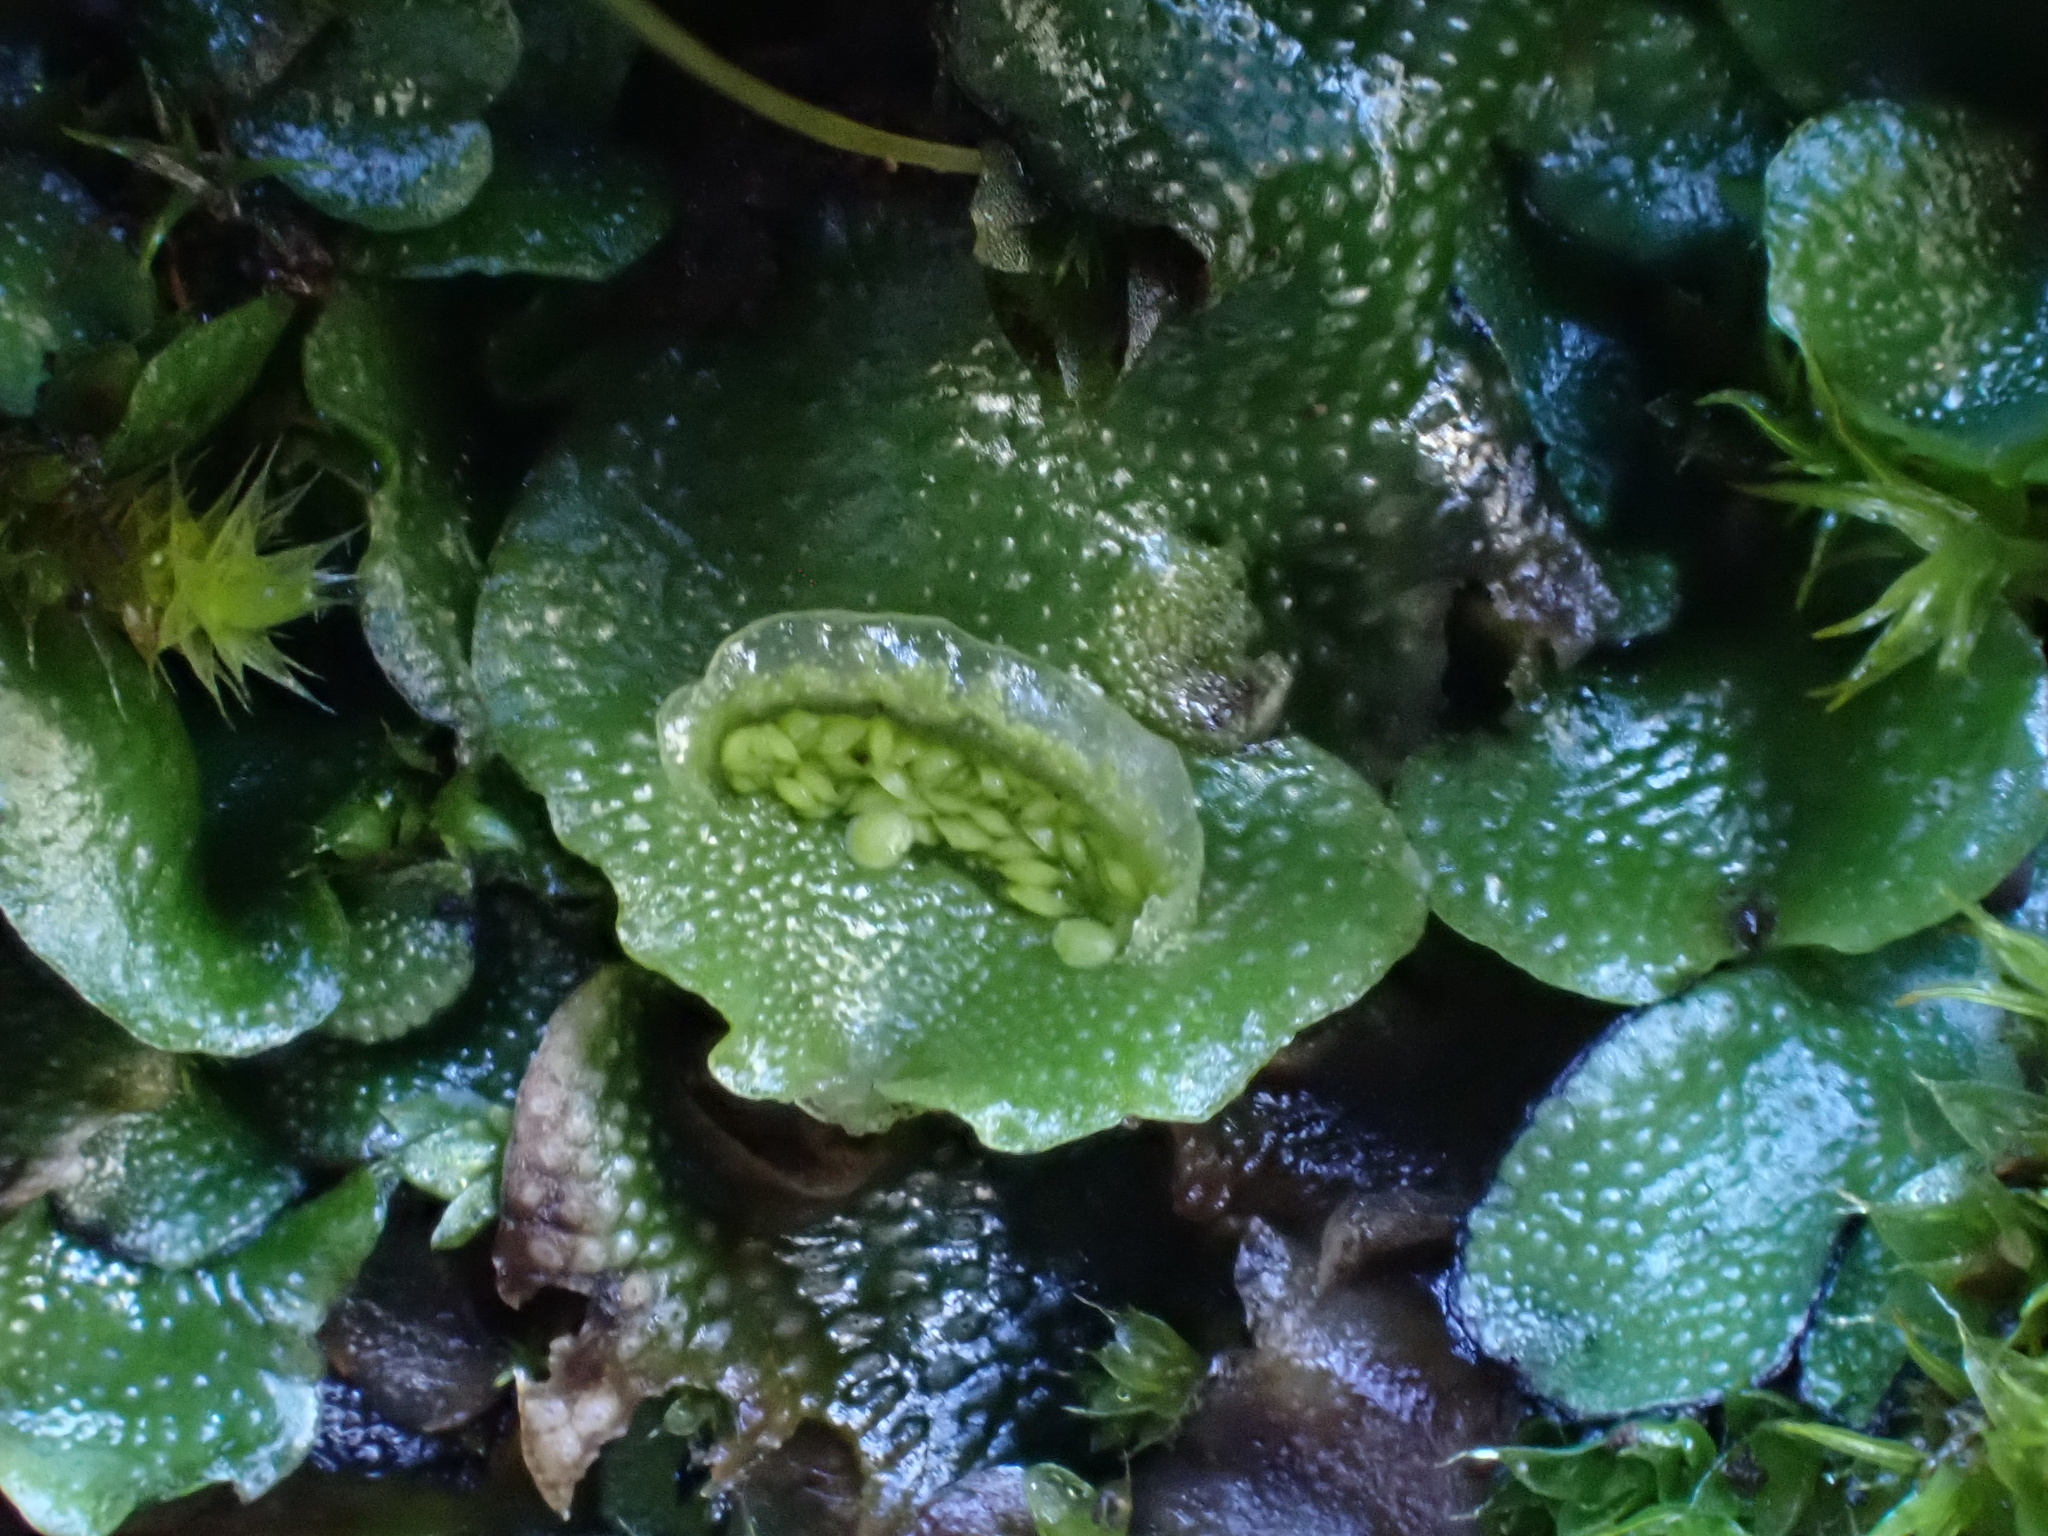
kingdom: Plantae
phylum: Marchantiophyta
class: Marchantiopsida
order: Lunulariales
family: Lunulariaceae
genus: Lunularia
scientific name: Lunularia cruciata
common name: Crescent-cup liverwort
